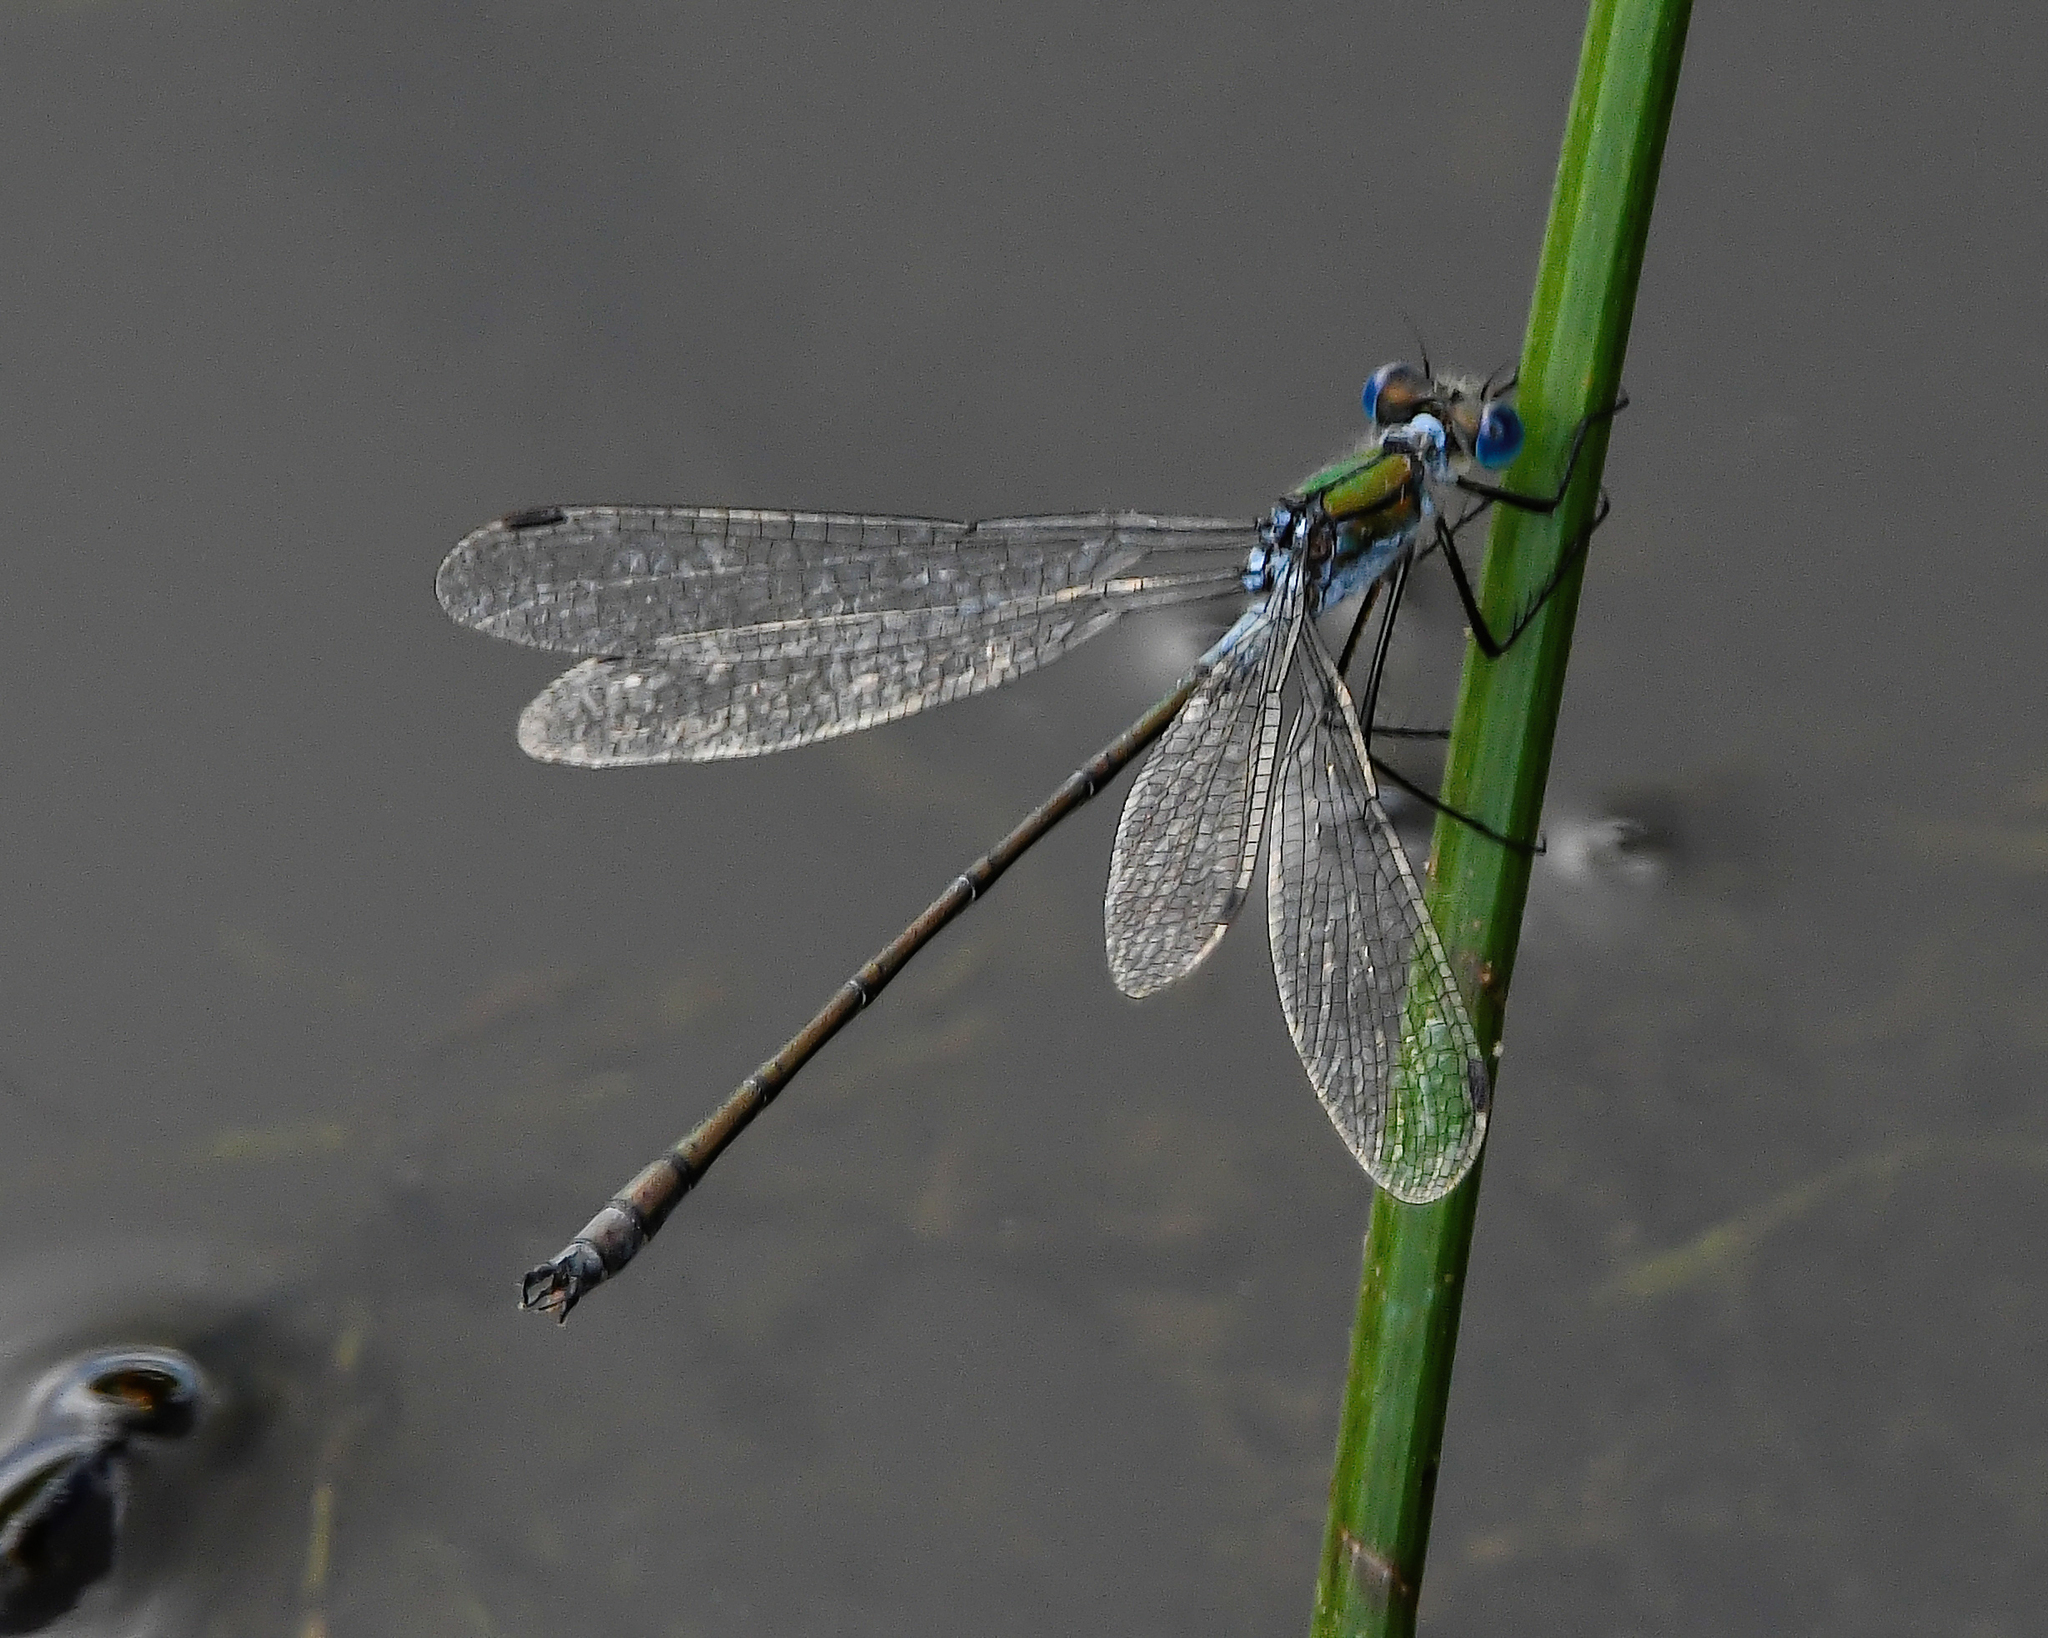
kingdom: Animalia
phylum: Arthropoda
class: Insecta
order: Odonata
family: Lestidae
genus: Lestes
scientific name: Lestes sponsa
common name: Common spreadwing
